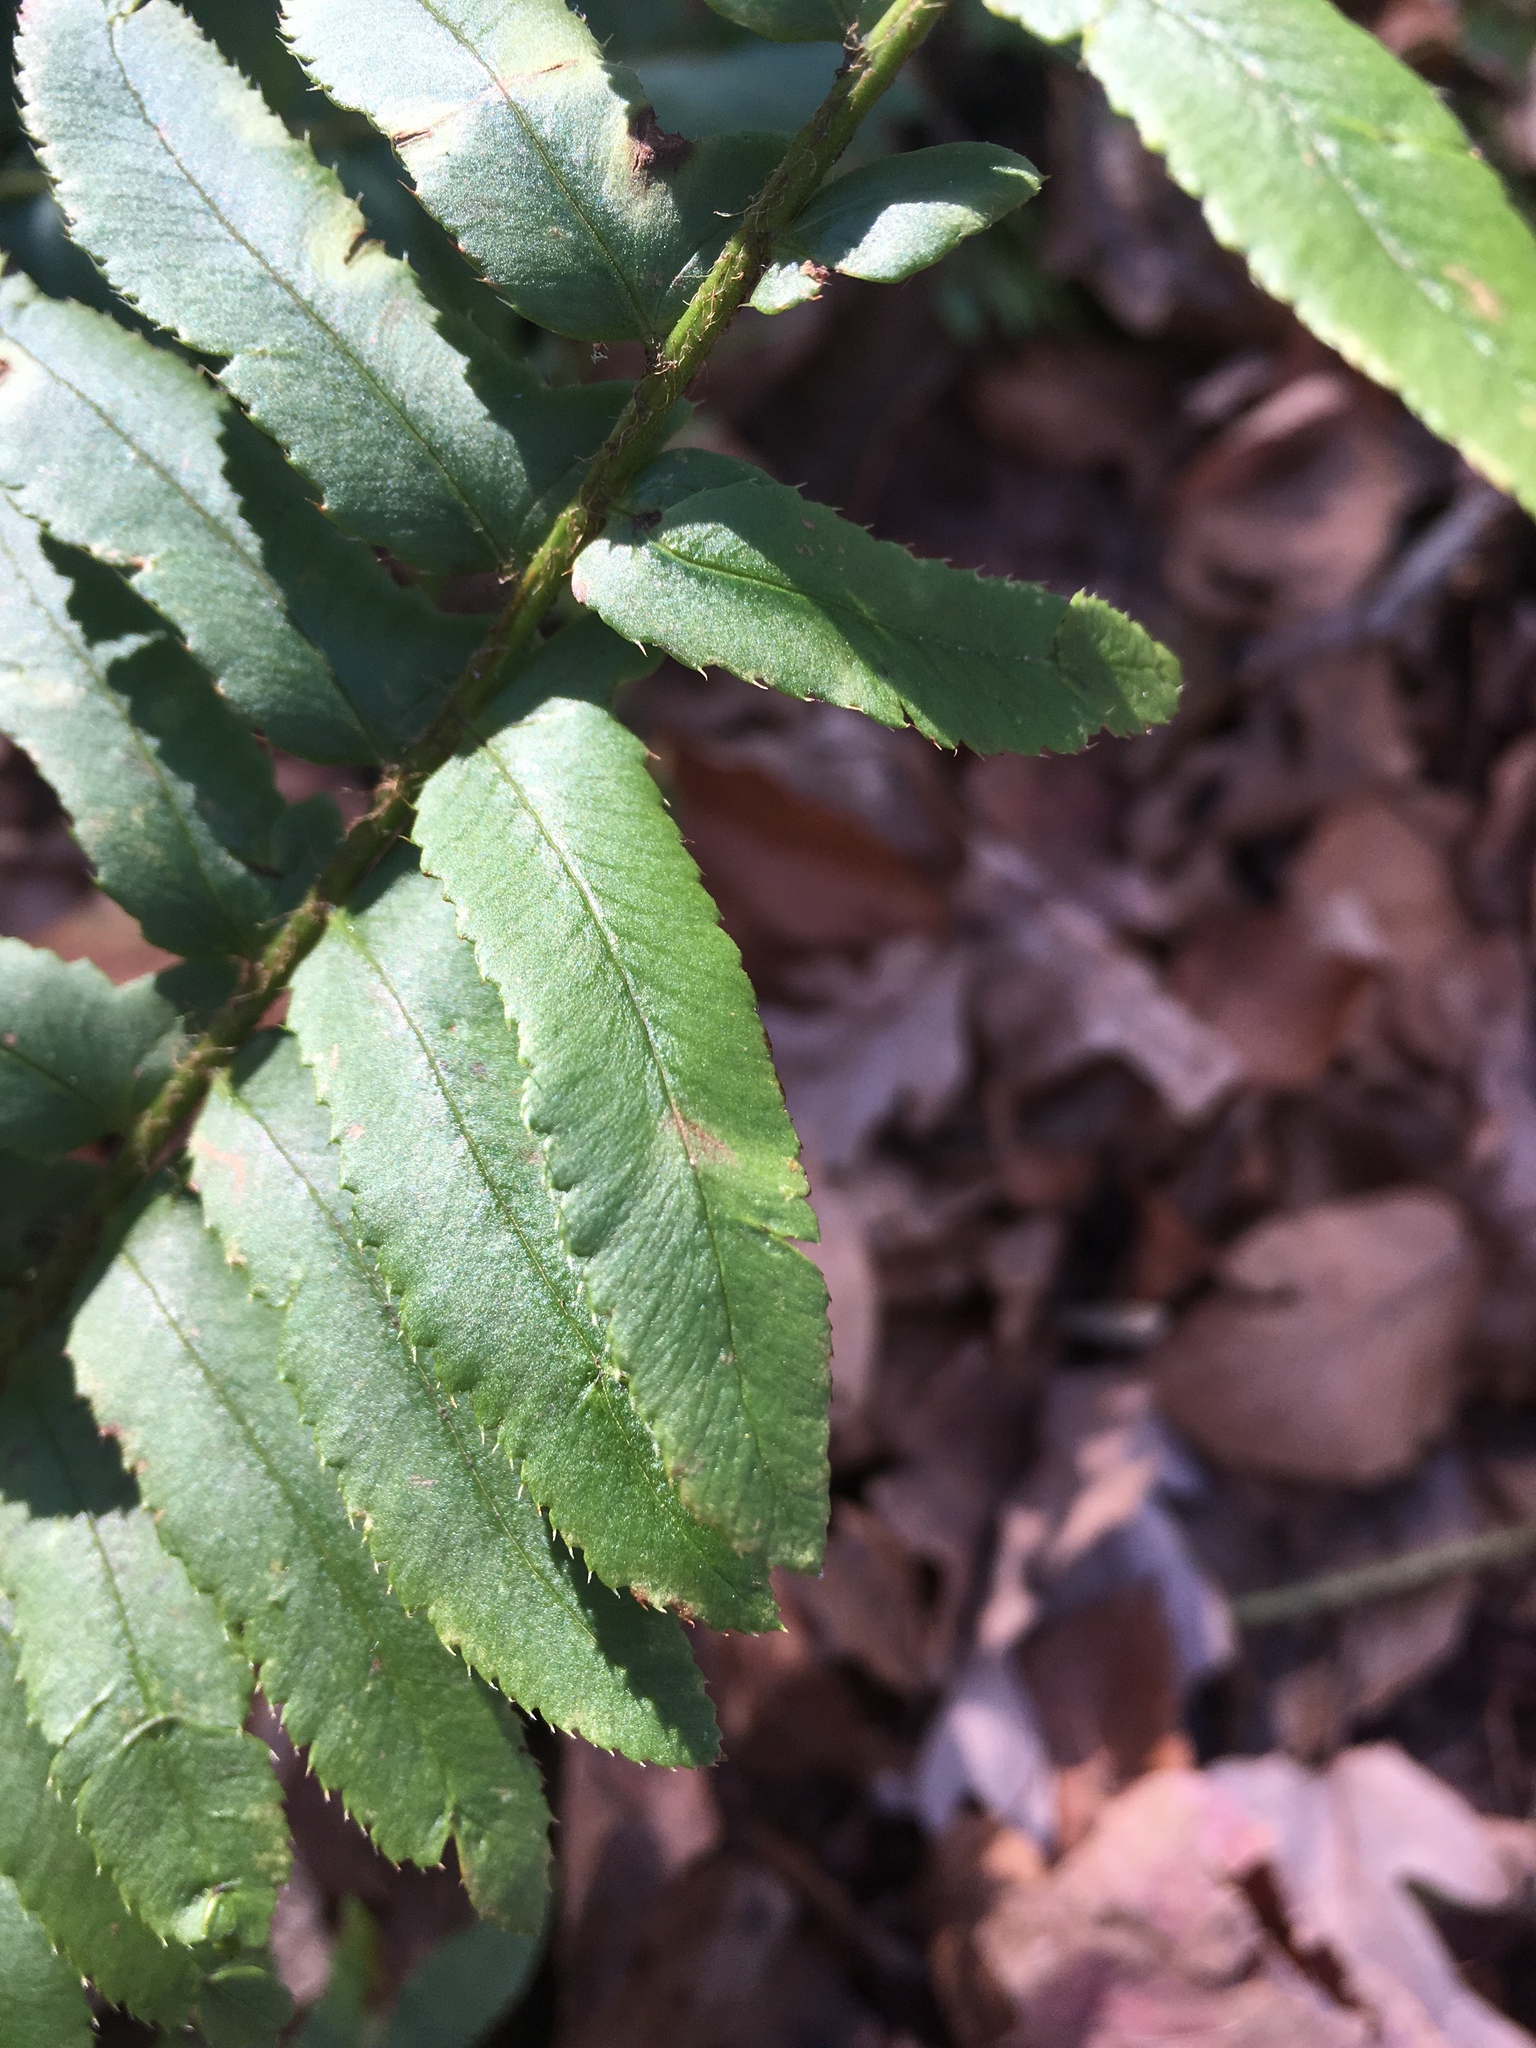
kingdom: Plantae
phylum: Tracheophyta
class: Polypodiopsida
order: Polypodiales
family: Dryopteridaceae
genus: Polystichum
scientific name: Polystichum acrostichoides
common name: Christmas fern
